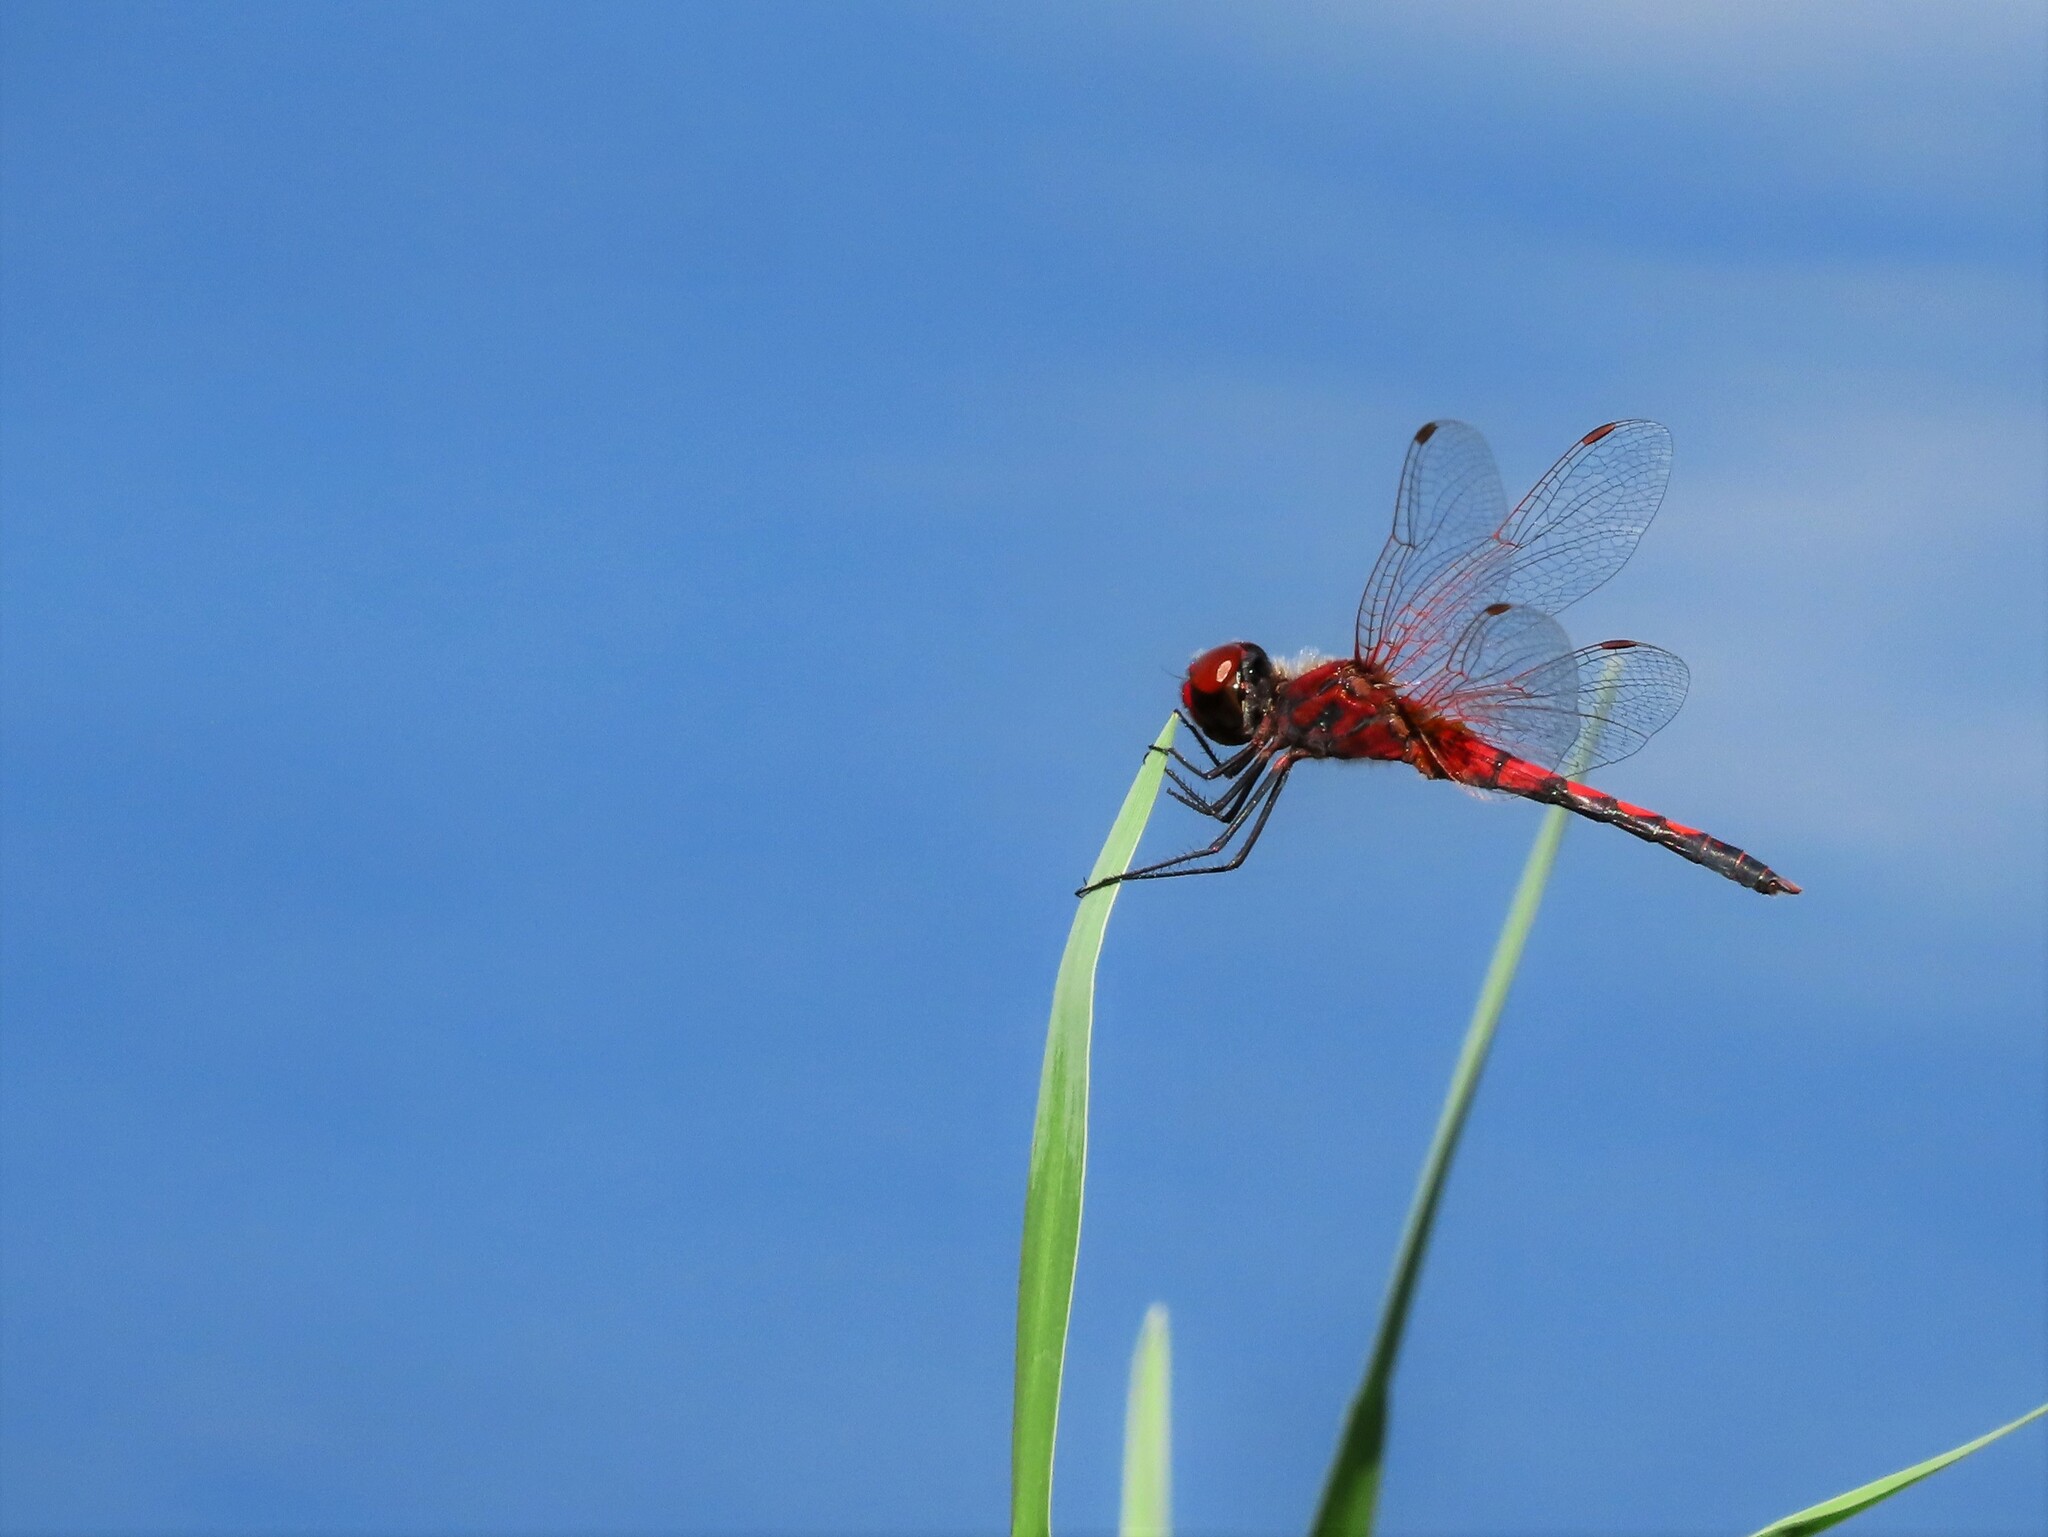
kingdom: Animalia
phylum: Arthropoda
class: Insecta
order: Odonata
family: Libellulidae
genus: Celithemis
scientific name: Celithemis bertha
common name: Red-veined pennant
